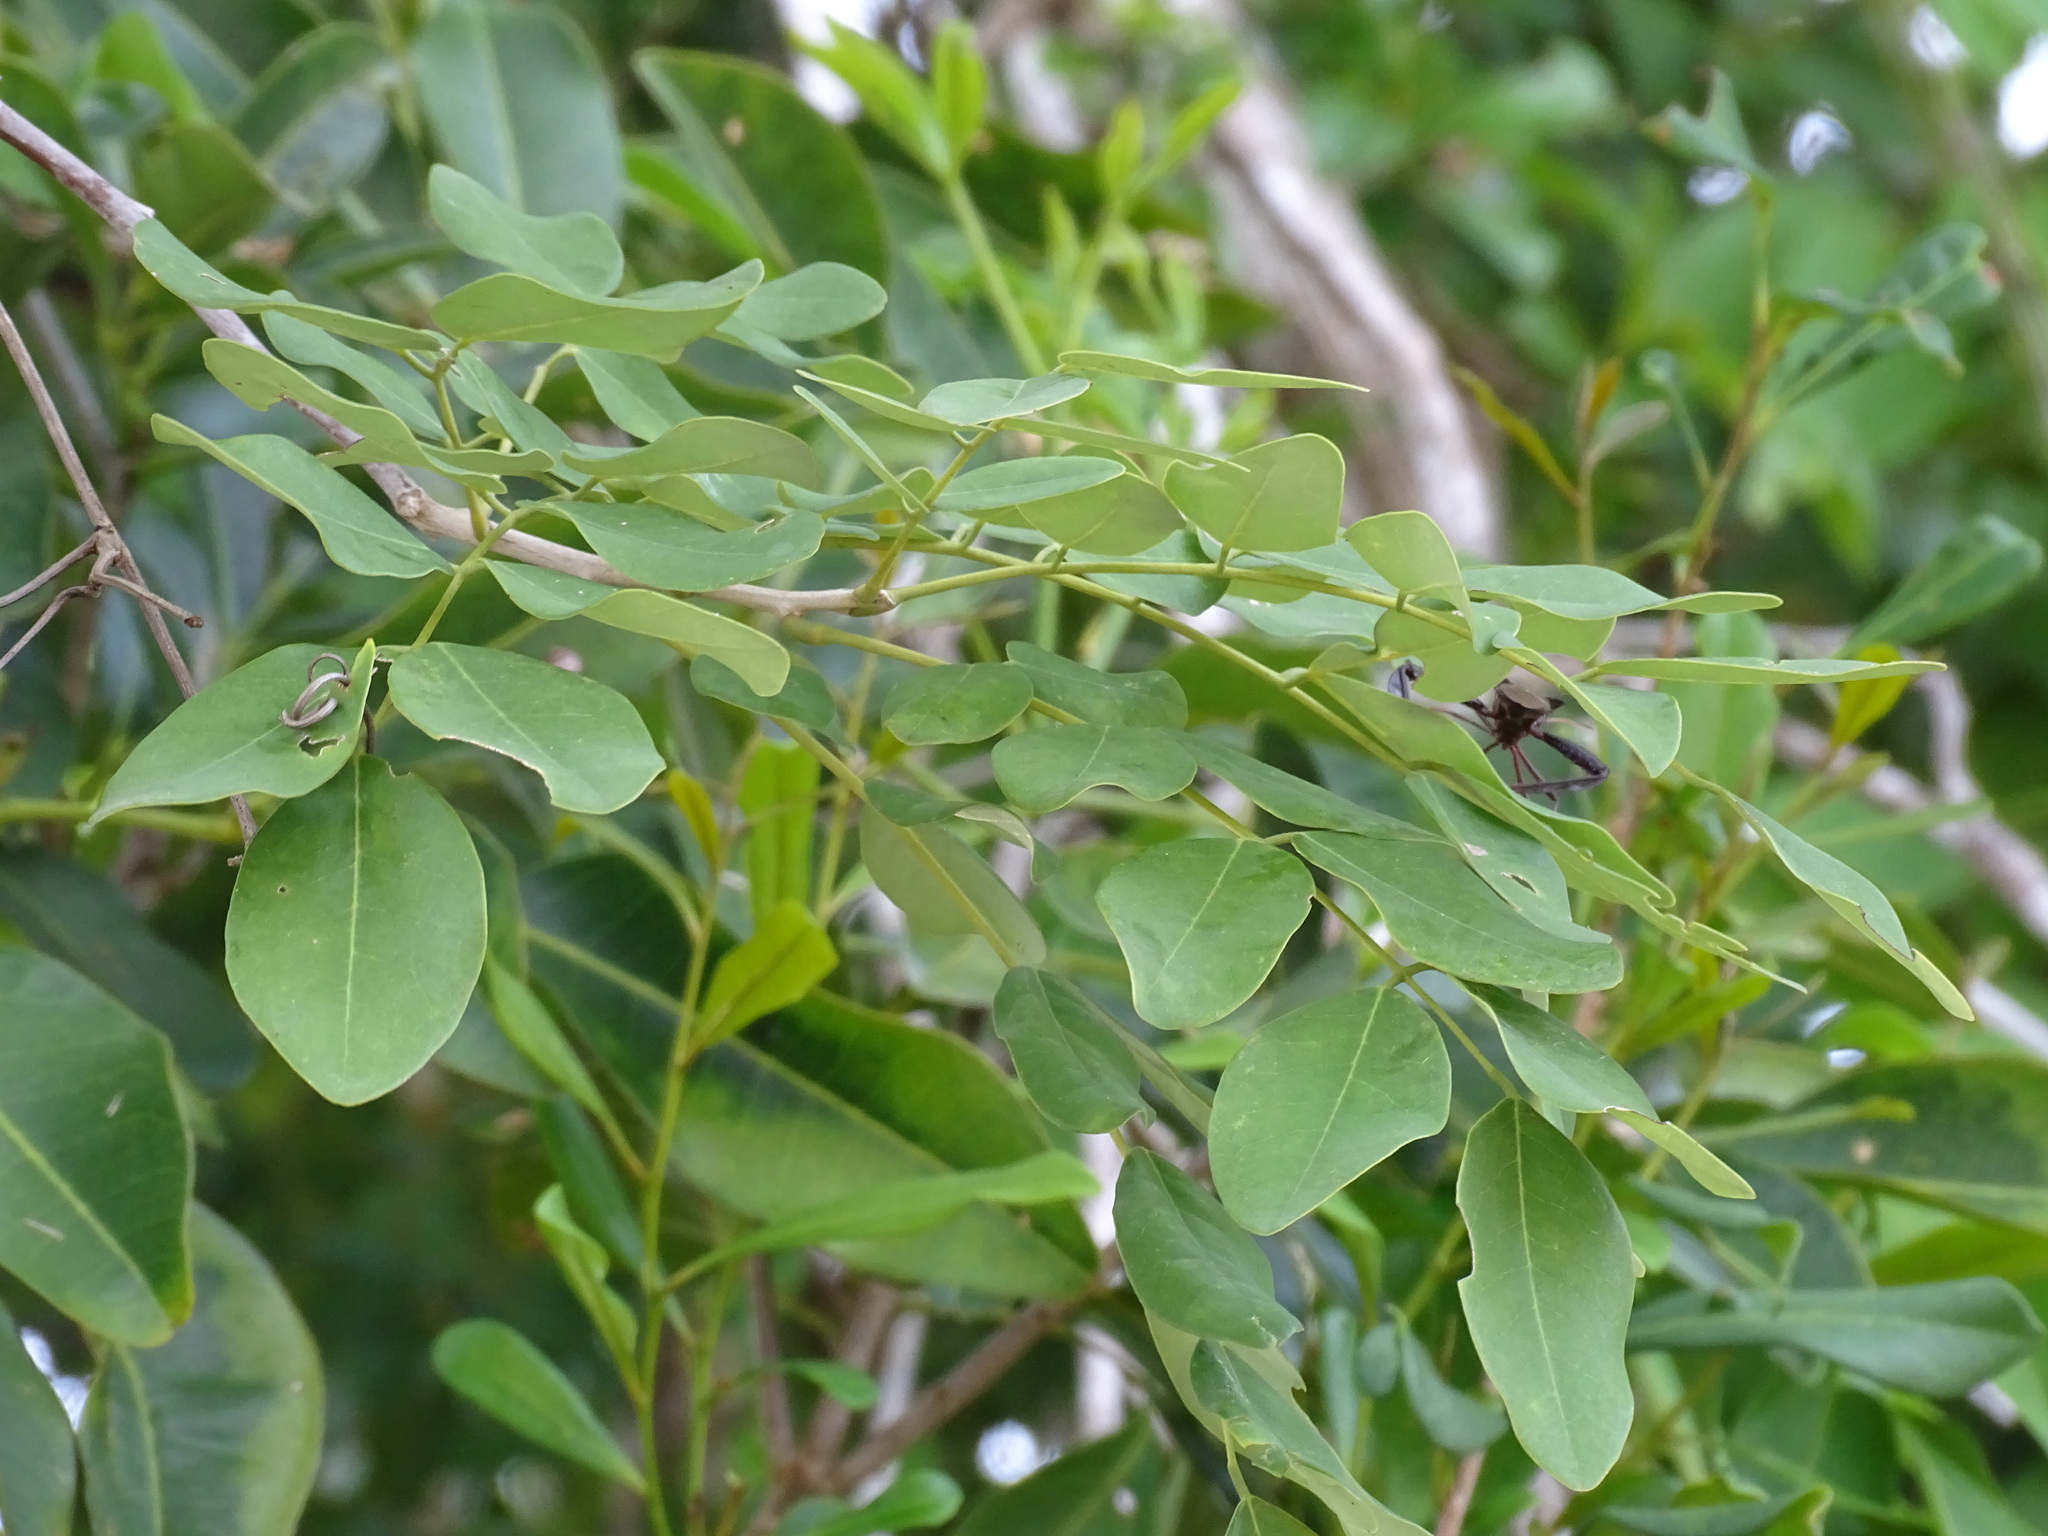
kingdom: Plantae
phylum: Tracheophyta
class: Magnoliopsida
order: Fabales
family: Fabaceae
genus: Gliricidia
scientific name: Gliricidia maculata
